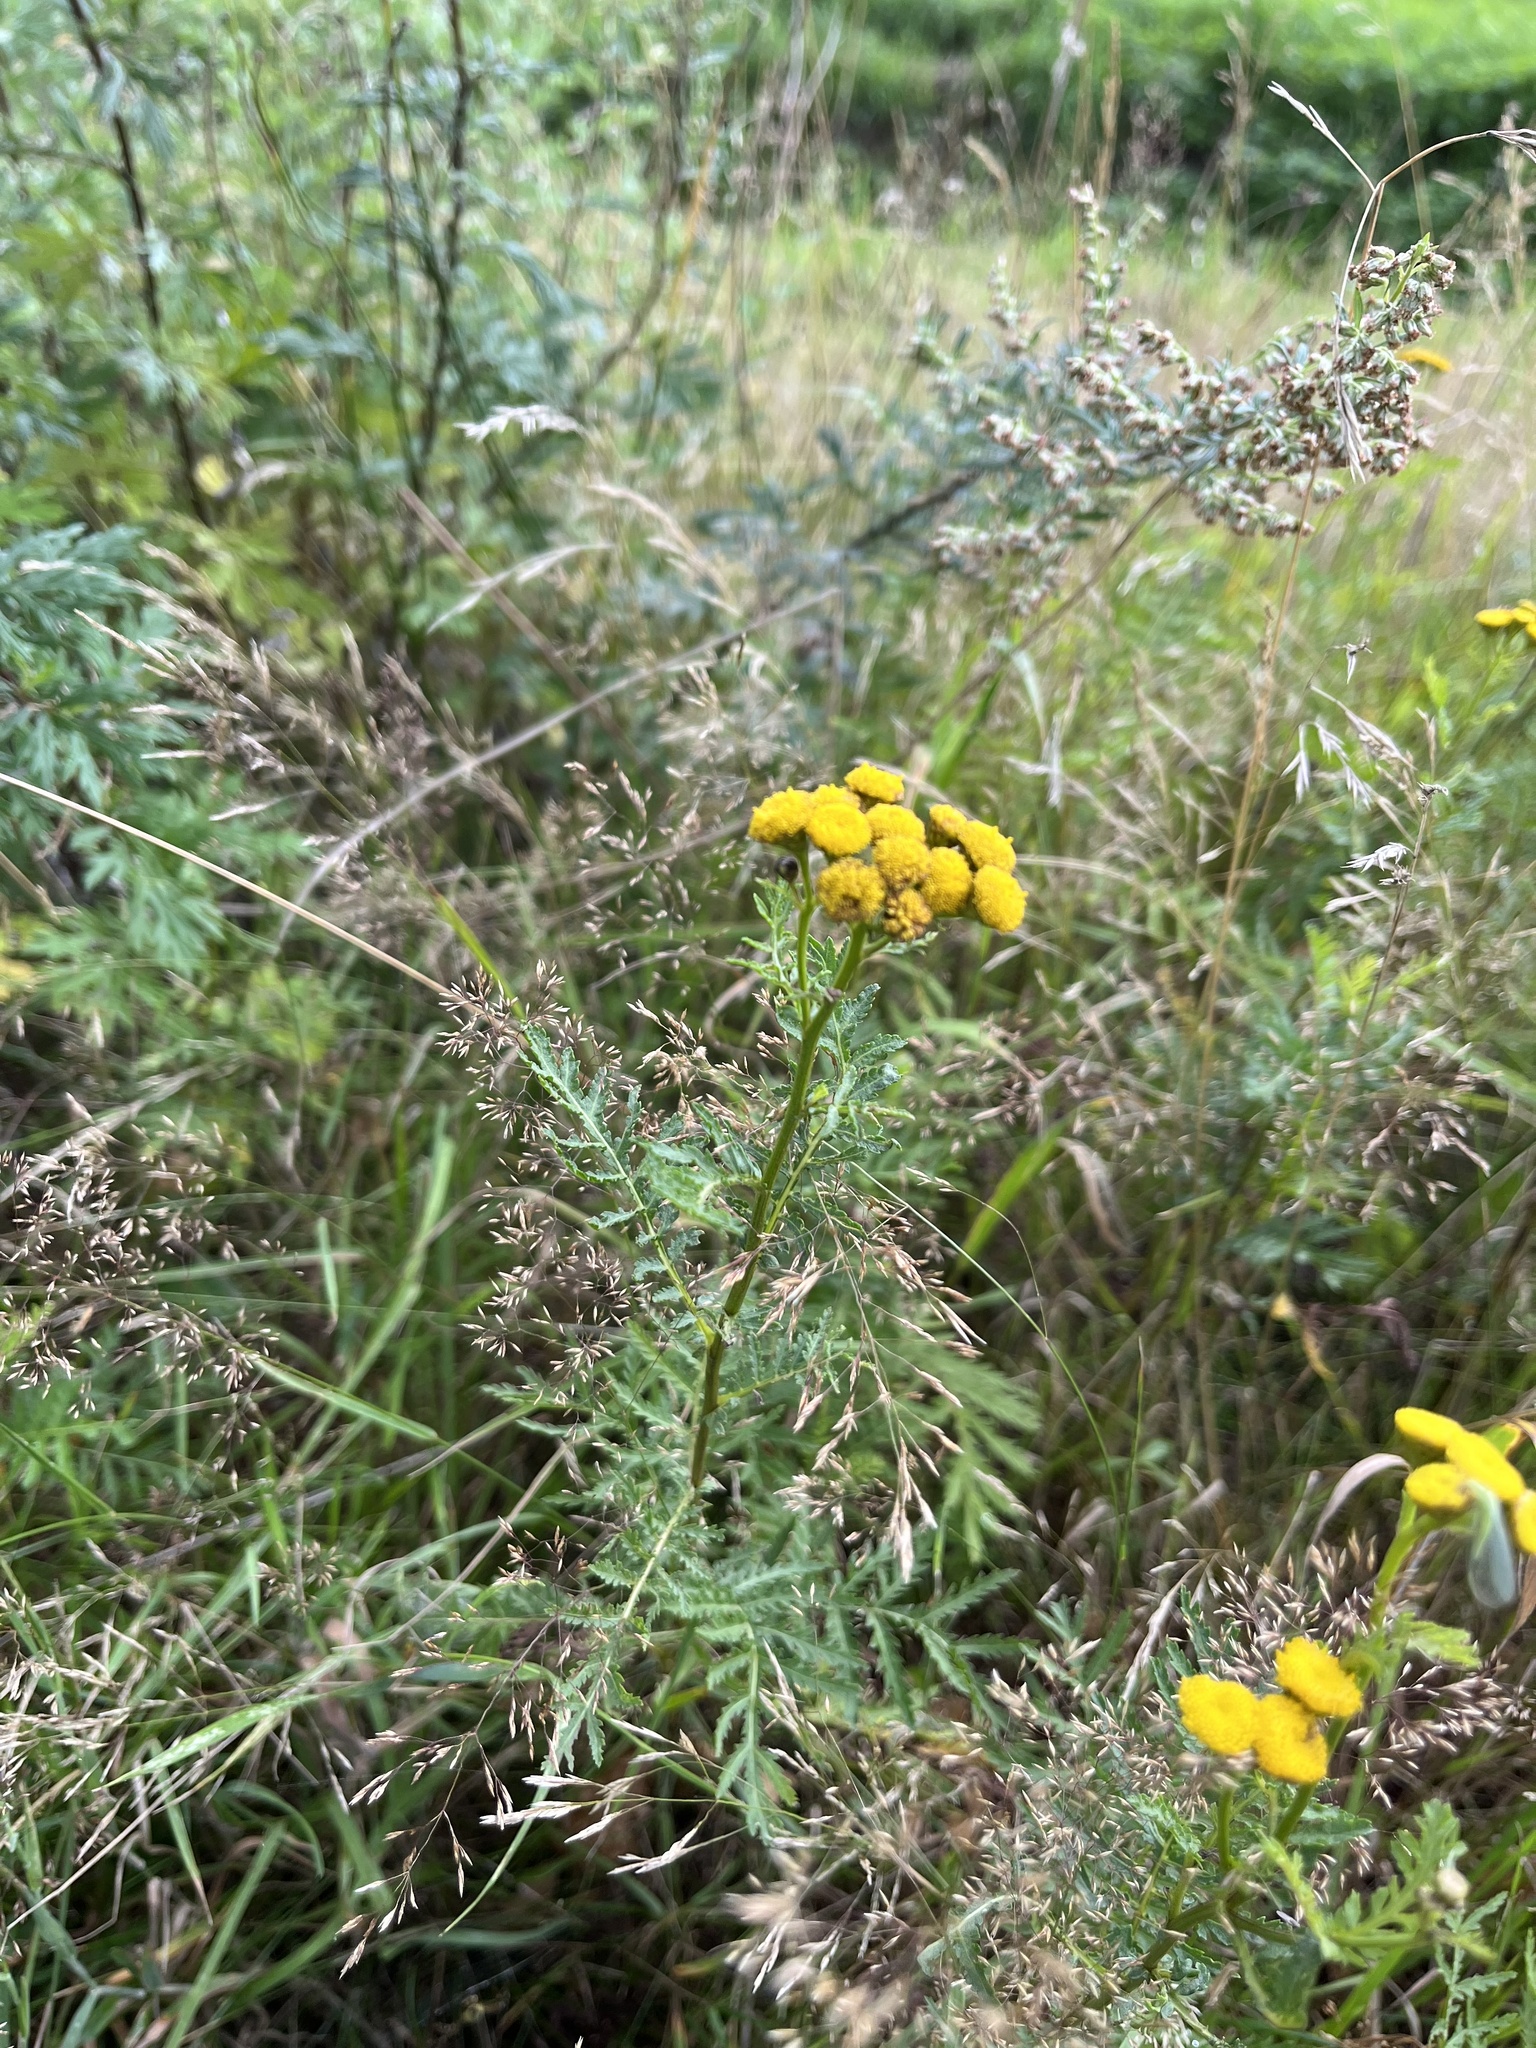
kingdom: Plantae
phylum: Tracheophyta
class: Magnoliopsida
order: Asterales
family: Asteraceae
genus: Tanacetum
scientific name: Tanacetum vulgare
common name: Common tansy
